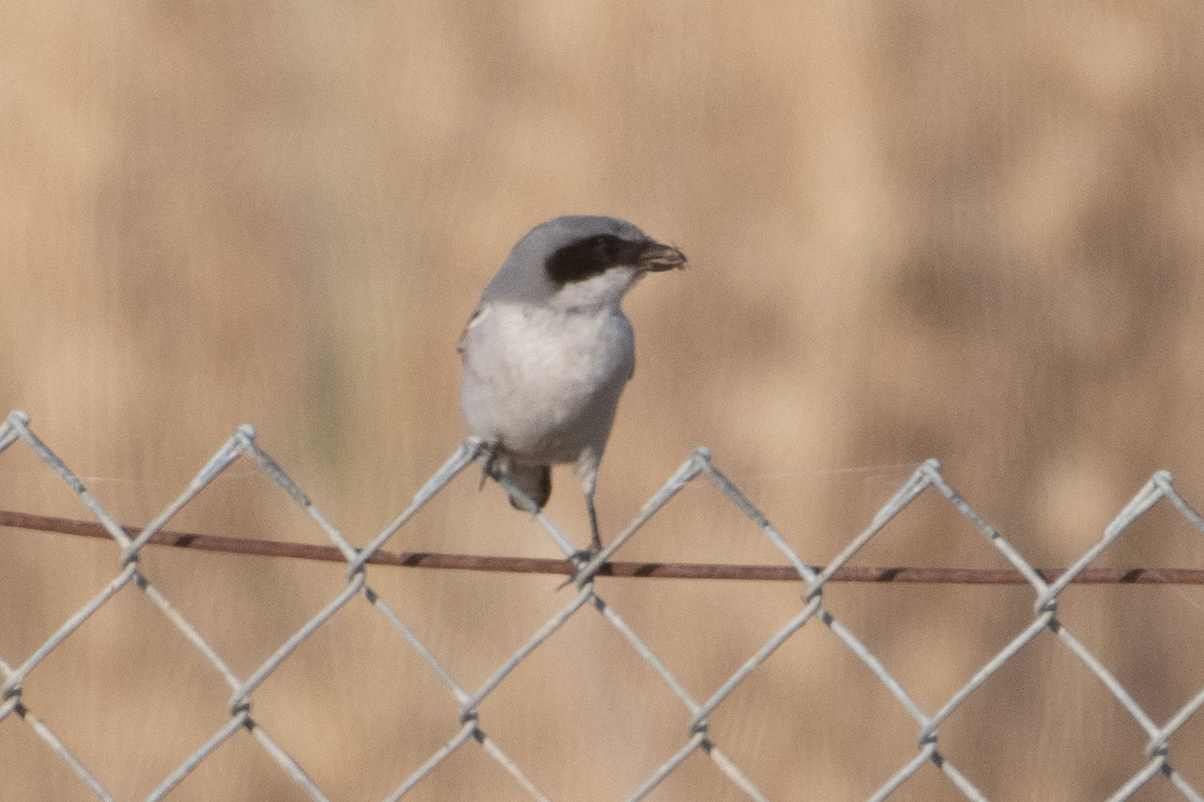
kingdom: Animalia
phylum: Chordata
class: Aves
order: Passeriformes
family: Laniidae
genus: Lanius
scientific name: Lanius ludovicianus
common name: Loggerhead shrike
